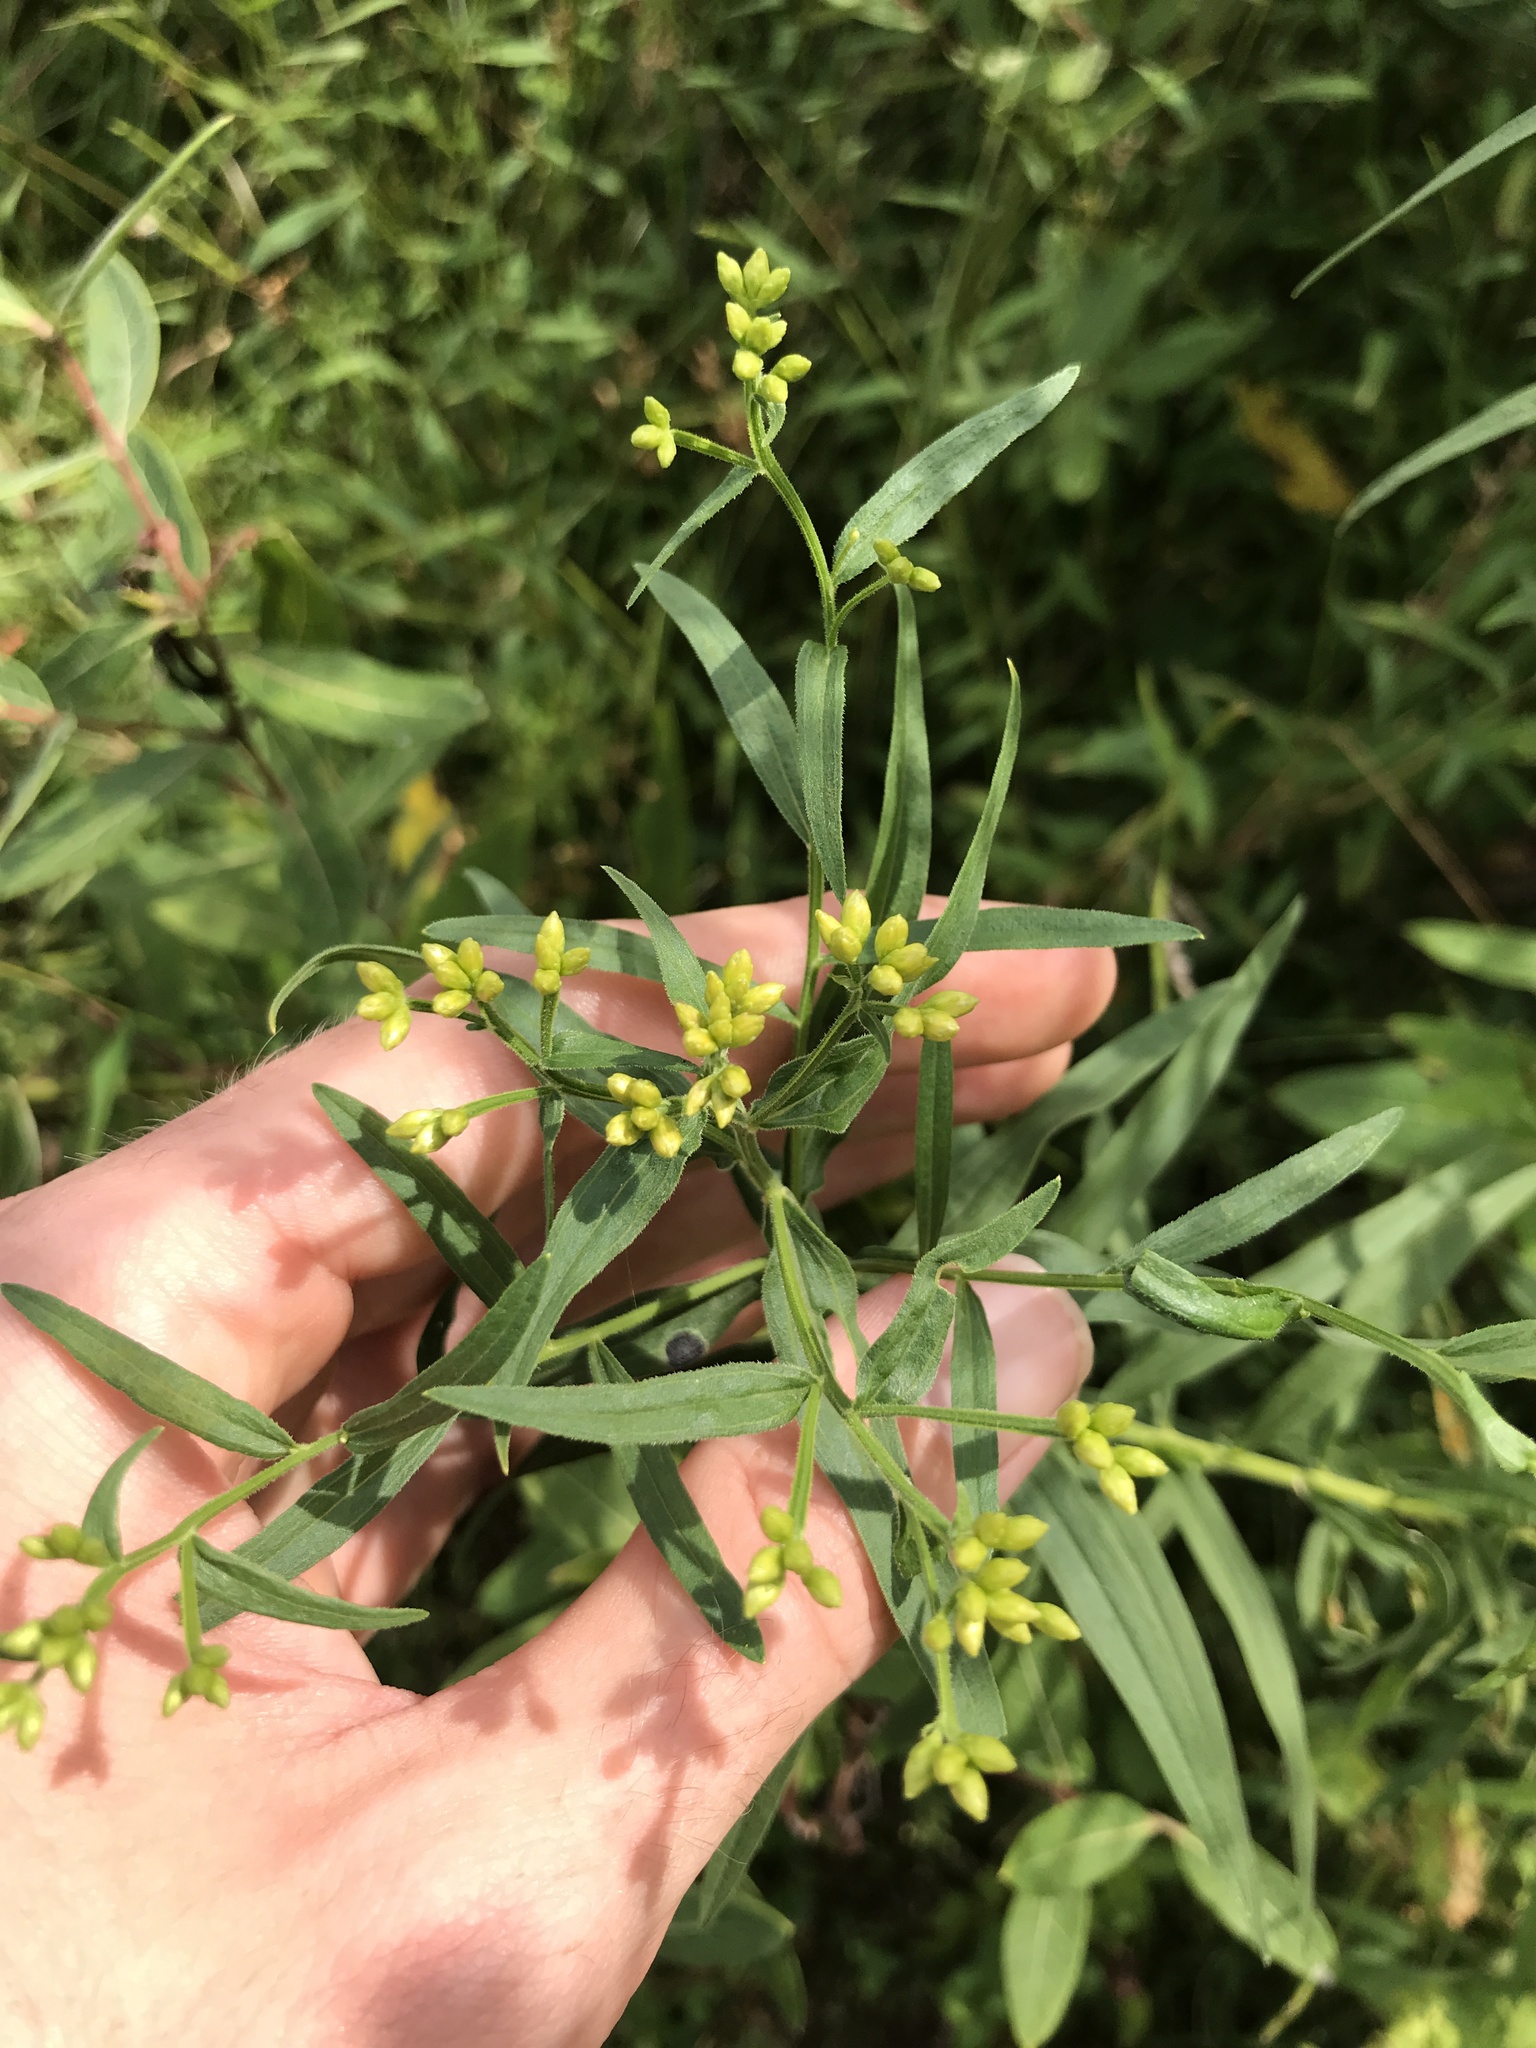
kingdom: Plantae
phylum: Tracheophyta
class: Magnoliopsida
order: Asterales
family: Asteraceae
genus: Euthamia
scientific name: Euthamia graminifolia
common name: Common goldentop
